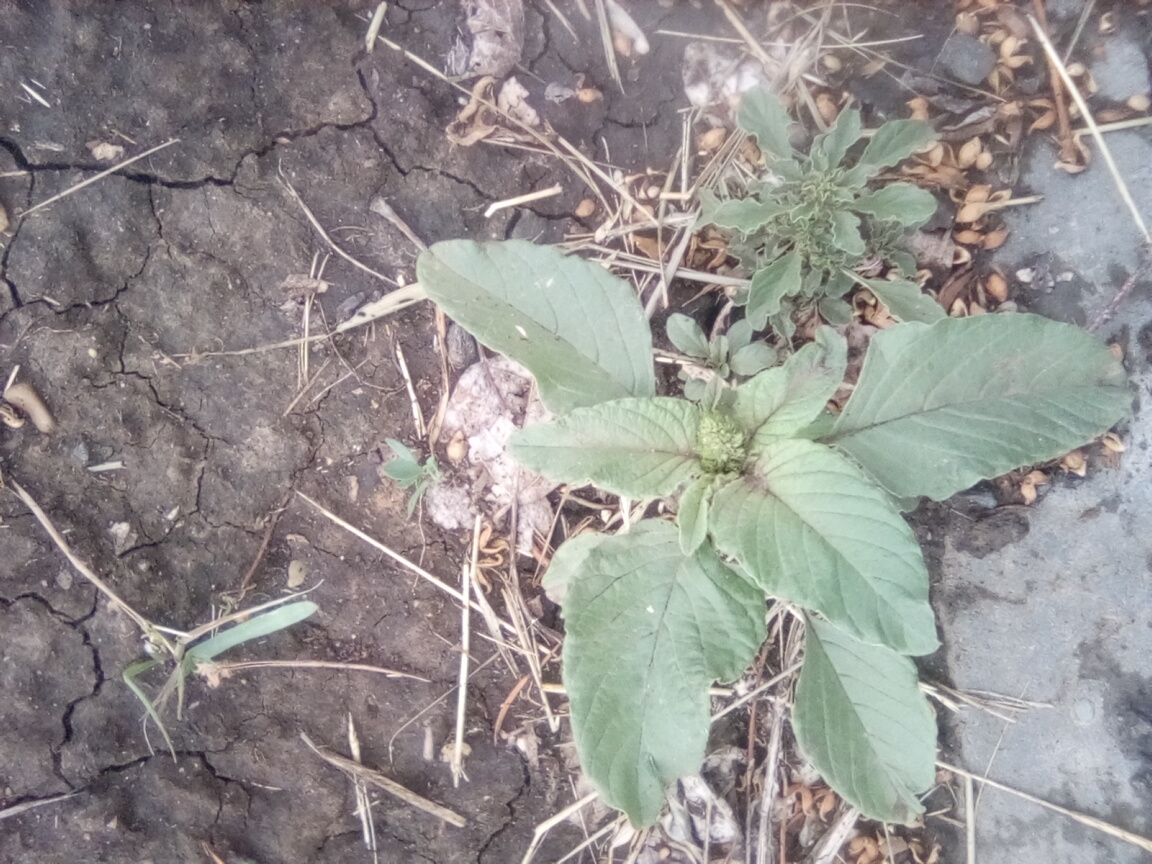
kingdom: Plantae
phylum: Tracheophyta
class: Magnoliopsida
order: Caryophyllales
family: Amaranthaceae
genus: Amaranthus
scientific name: Amaranthus retroflexus
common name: Redroot amaranth
